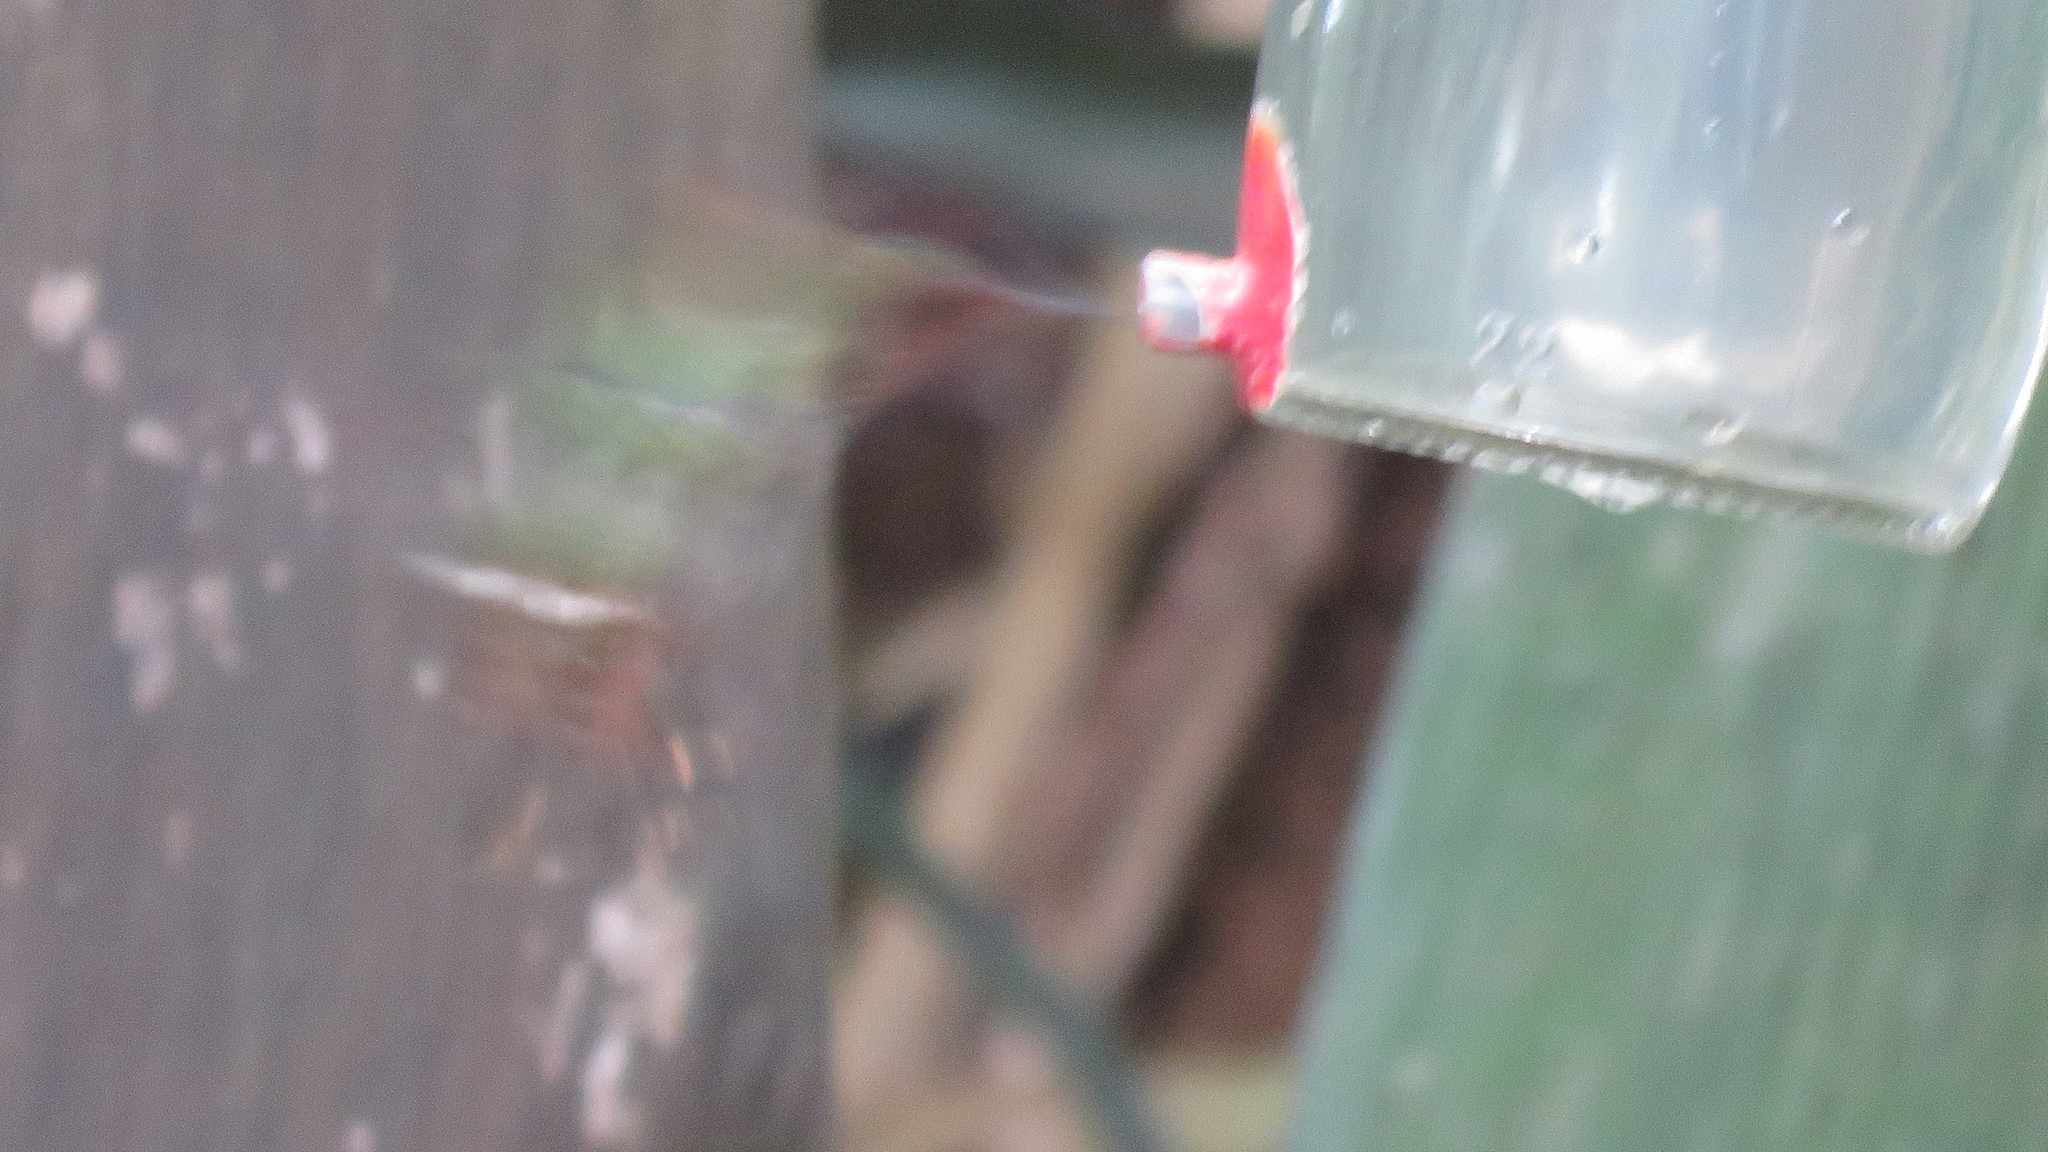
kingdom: Animalia
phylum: Chordata
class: Aves
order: Apodiformes
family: Trochilidae
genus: Lophornis
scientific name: Lophornis magnificus
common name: Frilled coquette
